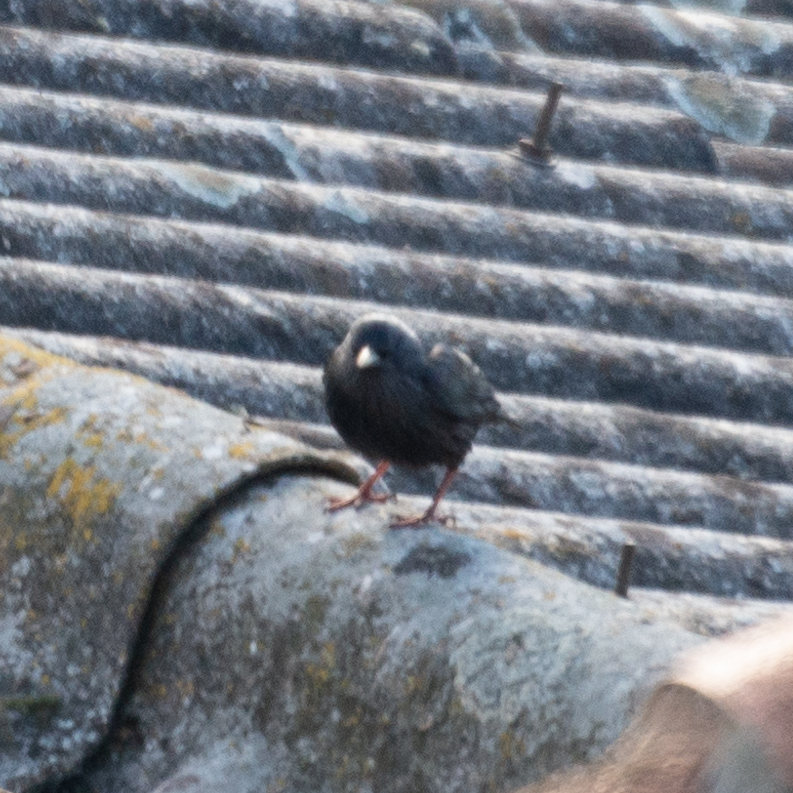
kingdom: Animalia
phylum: Chordata
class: Aves
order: Passeriformes
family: Sturnidae
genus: Sturnus
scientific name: Sturnus unicolor
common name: Spotless starling
